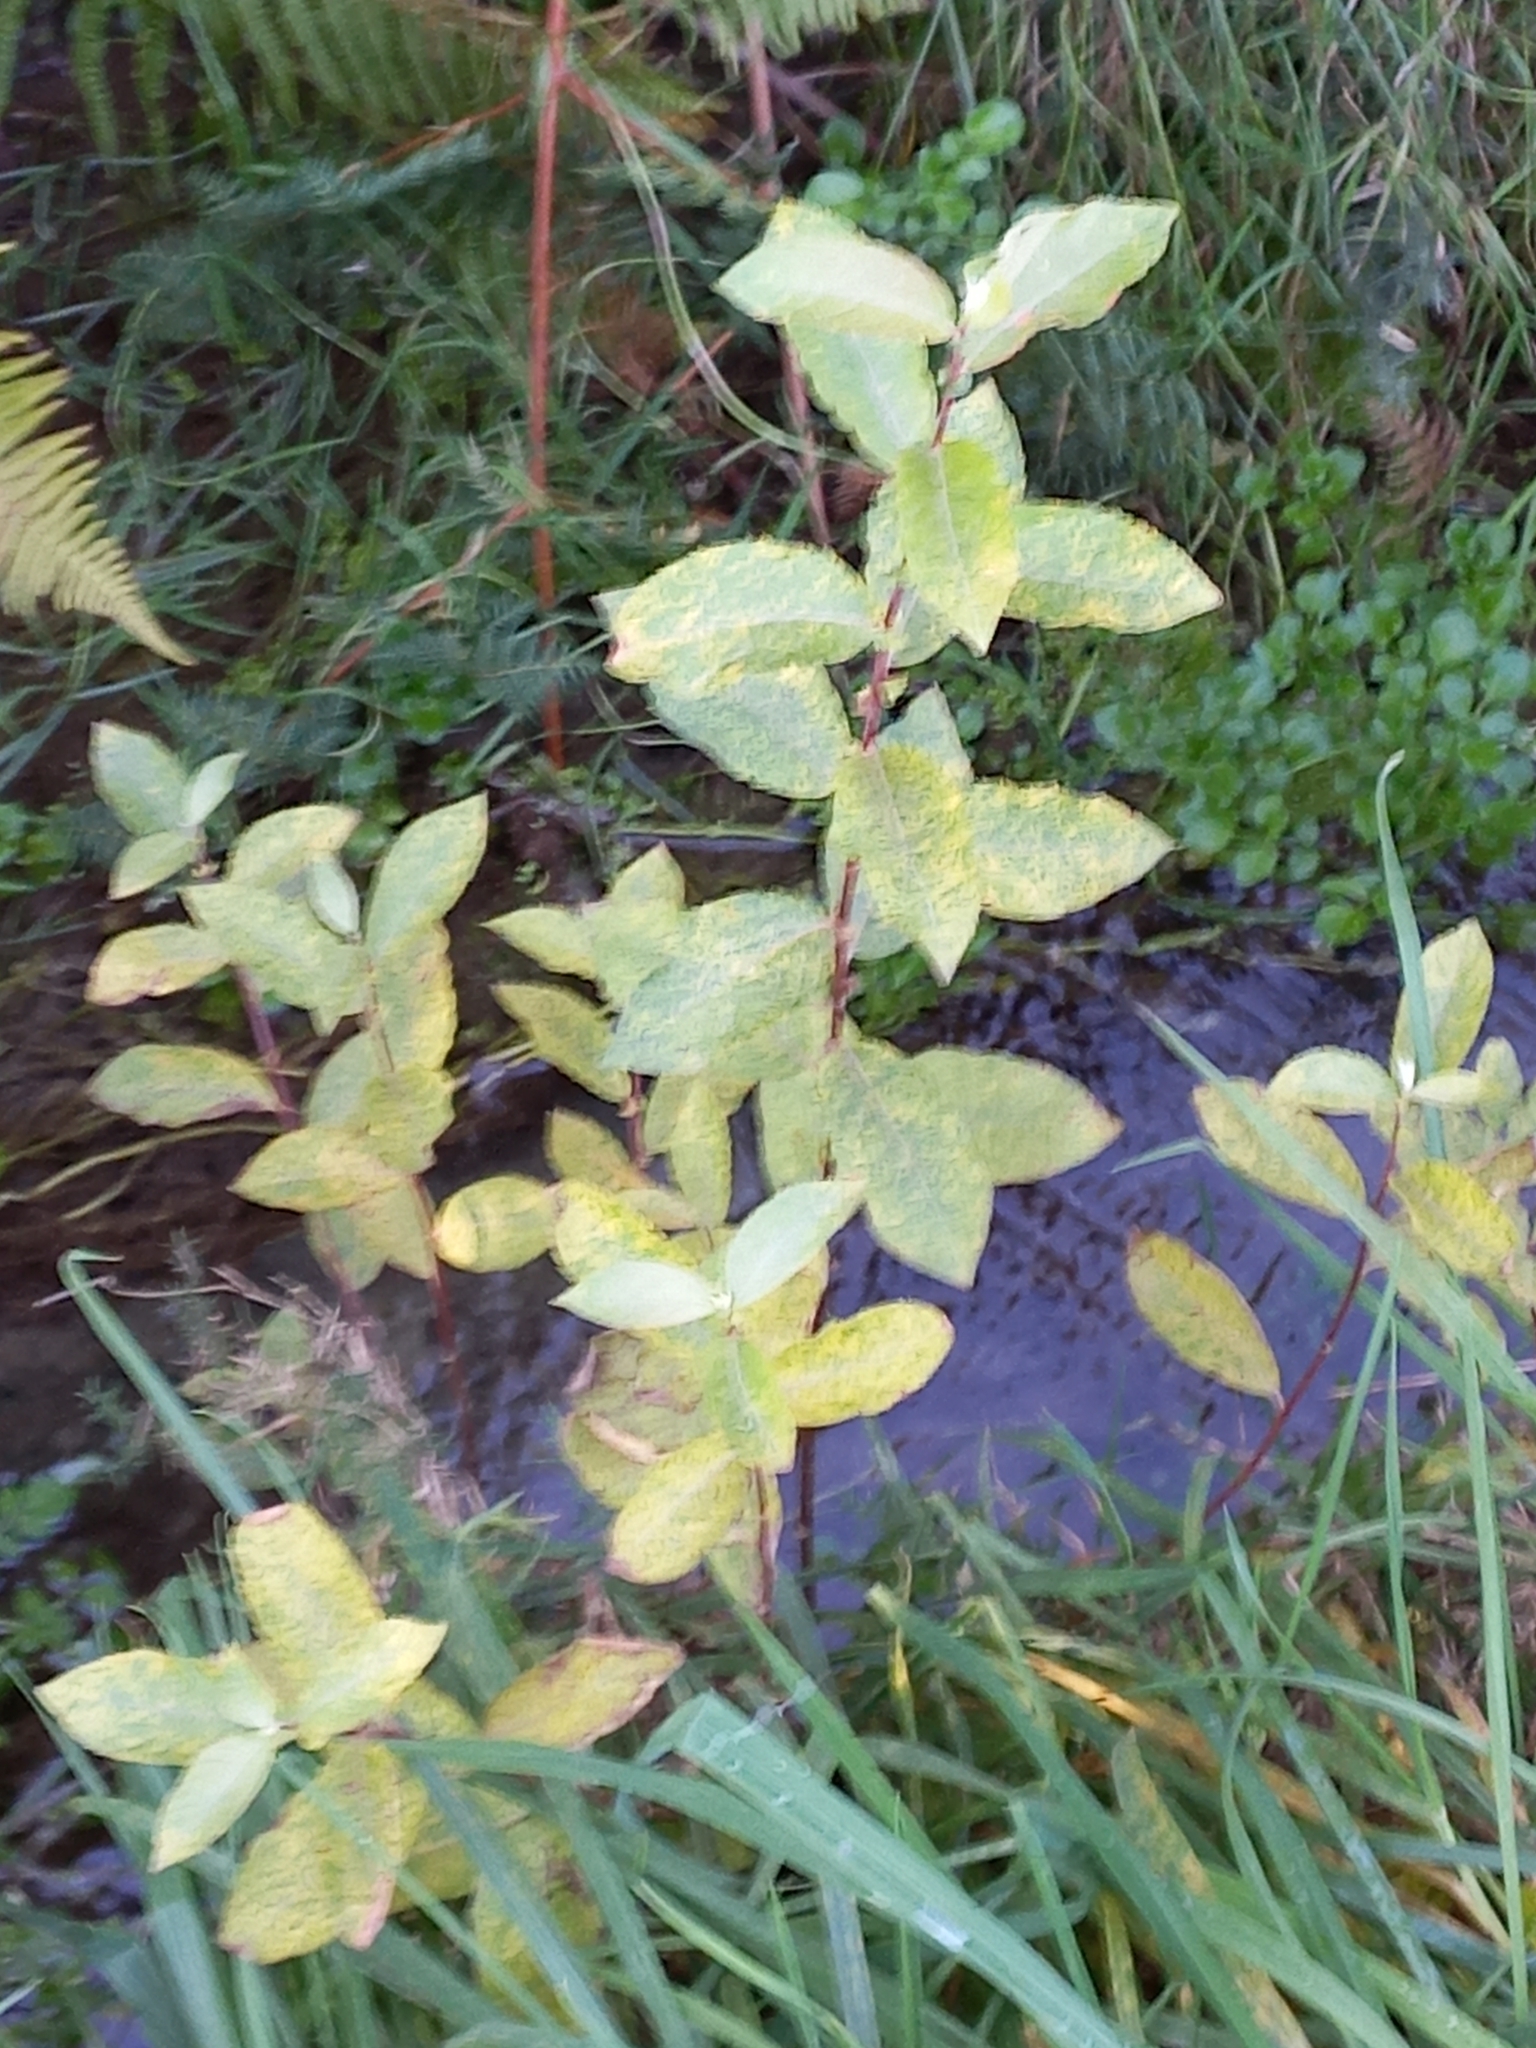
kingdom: Plantae
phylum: Tracheophyta
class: Magnoliopsida
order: Malpighiales
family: Salicaceae
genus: Salix
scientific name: Salix cinerea
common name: Common sallow
